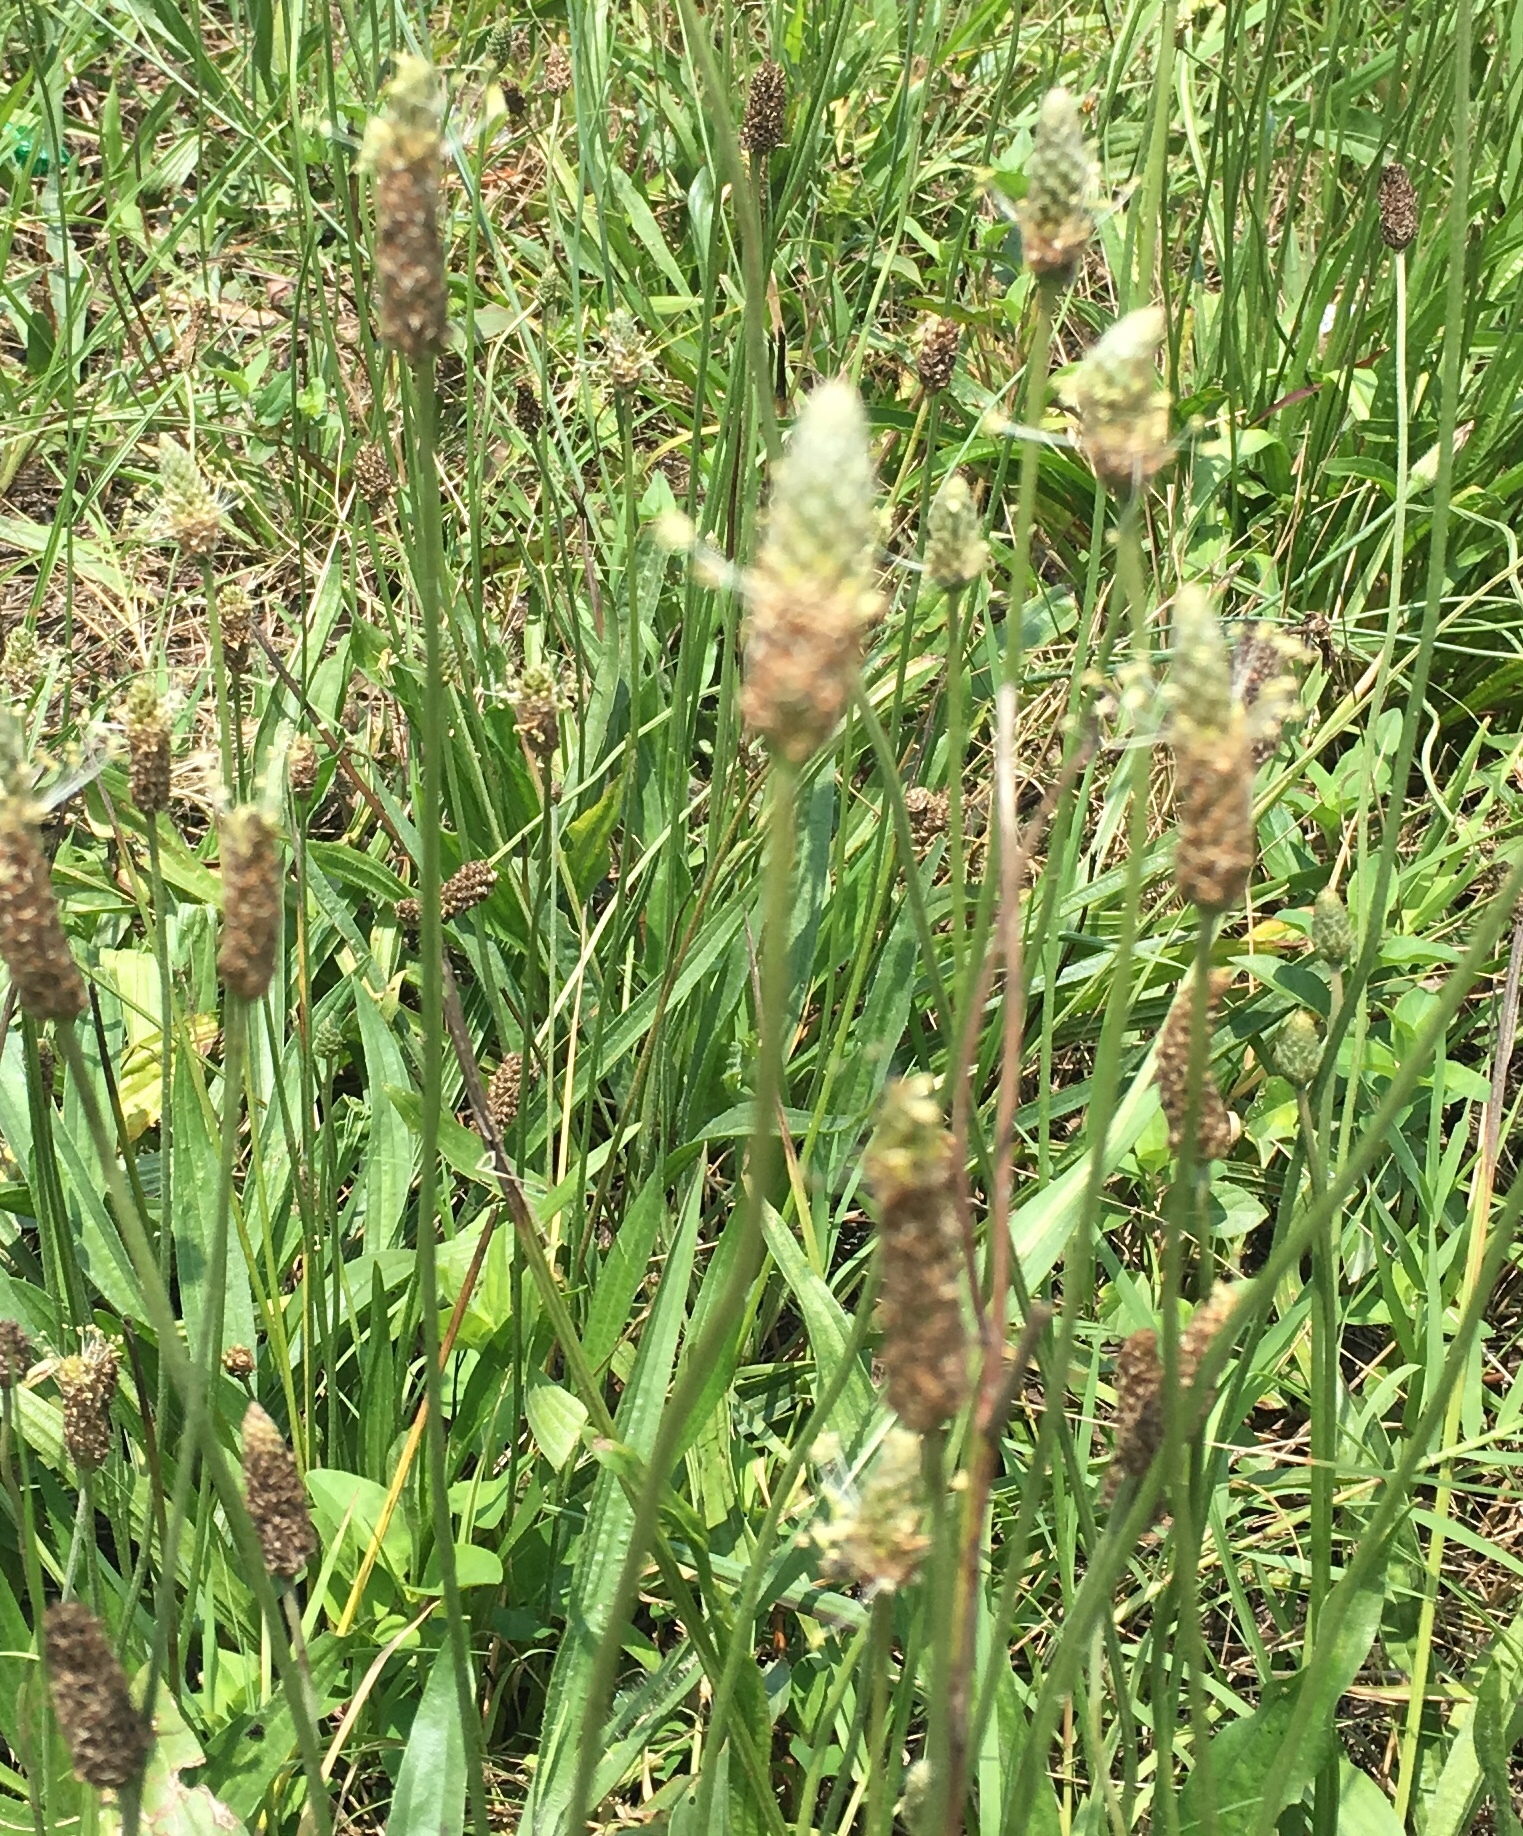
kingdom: Plantae
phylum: Tracheophyta
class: Magnoliopsida
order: Lamiales
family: Plantaginaceae
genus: Plantago
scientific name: Plantago lanceolata
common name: Ribwort plantain
